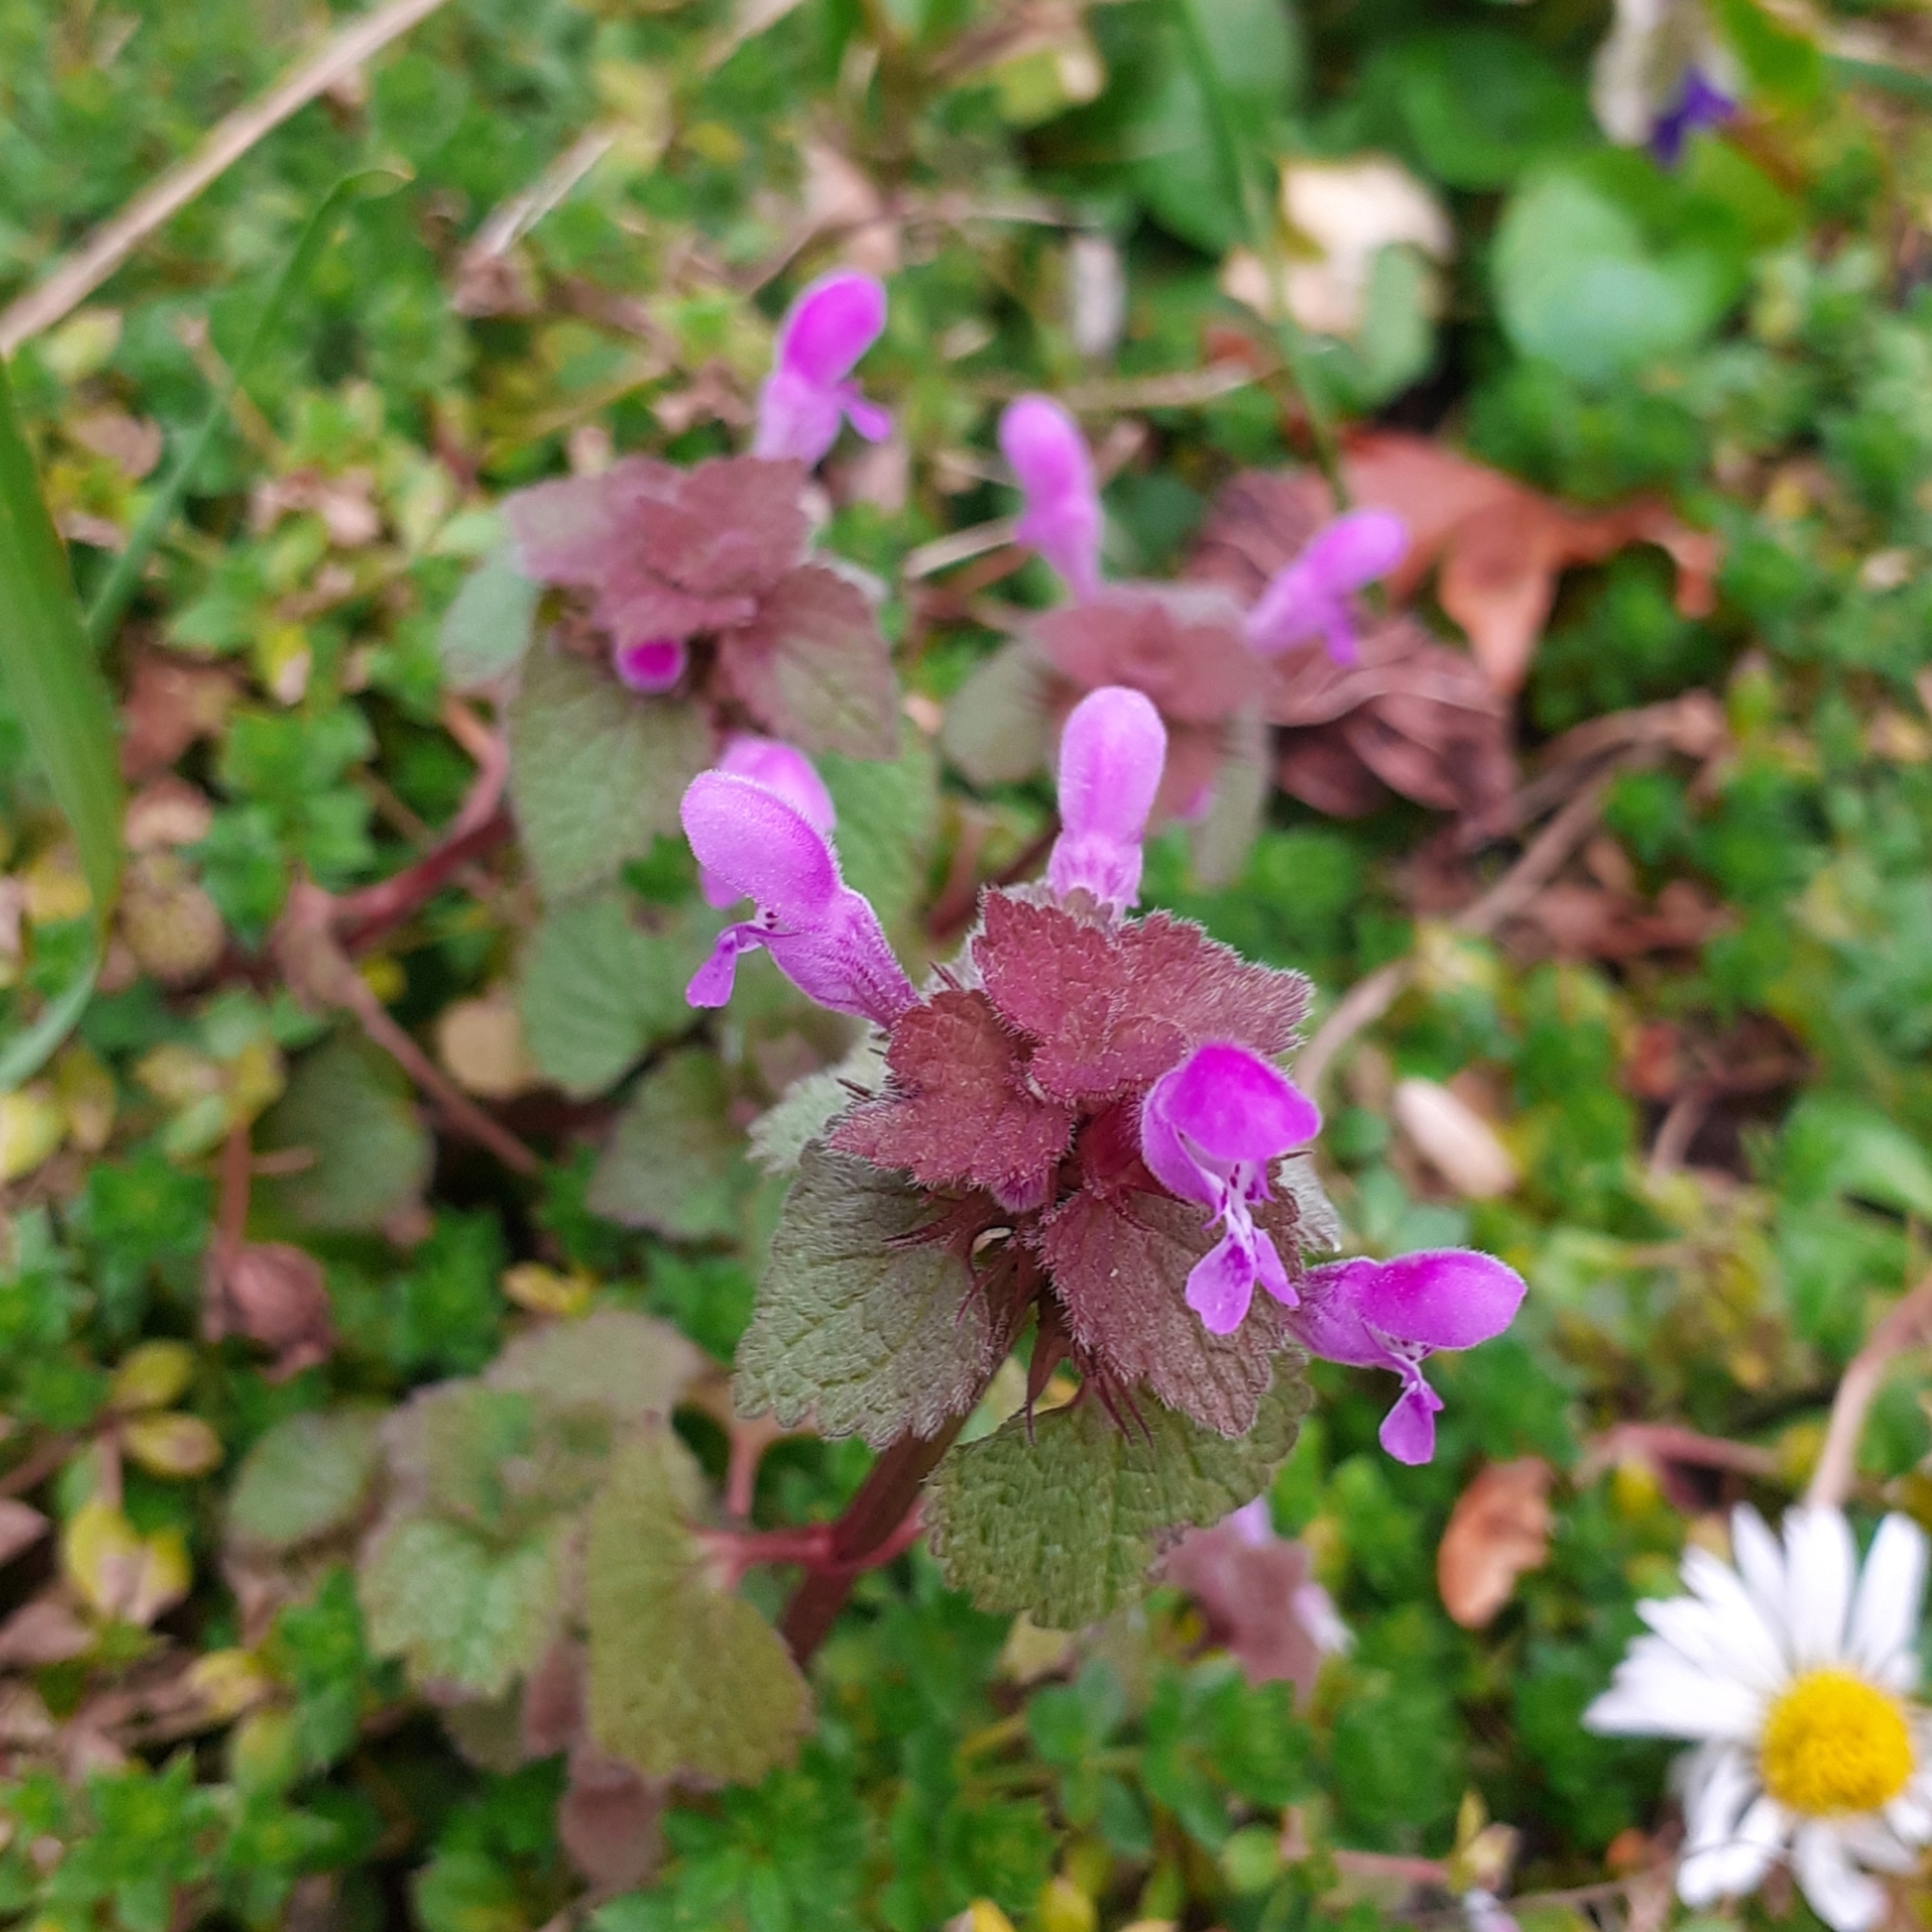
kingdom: Plantae
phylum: Tracheophyta
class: Magnoliopsida
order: Lamiales
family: Lamiaceae
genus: Lamium
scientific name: Lamium purpureum
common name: Red dead-nettle
